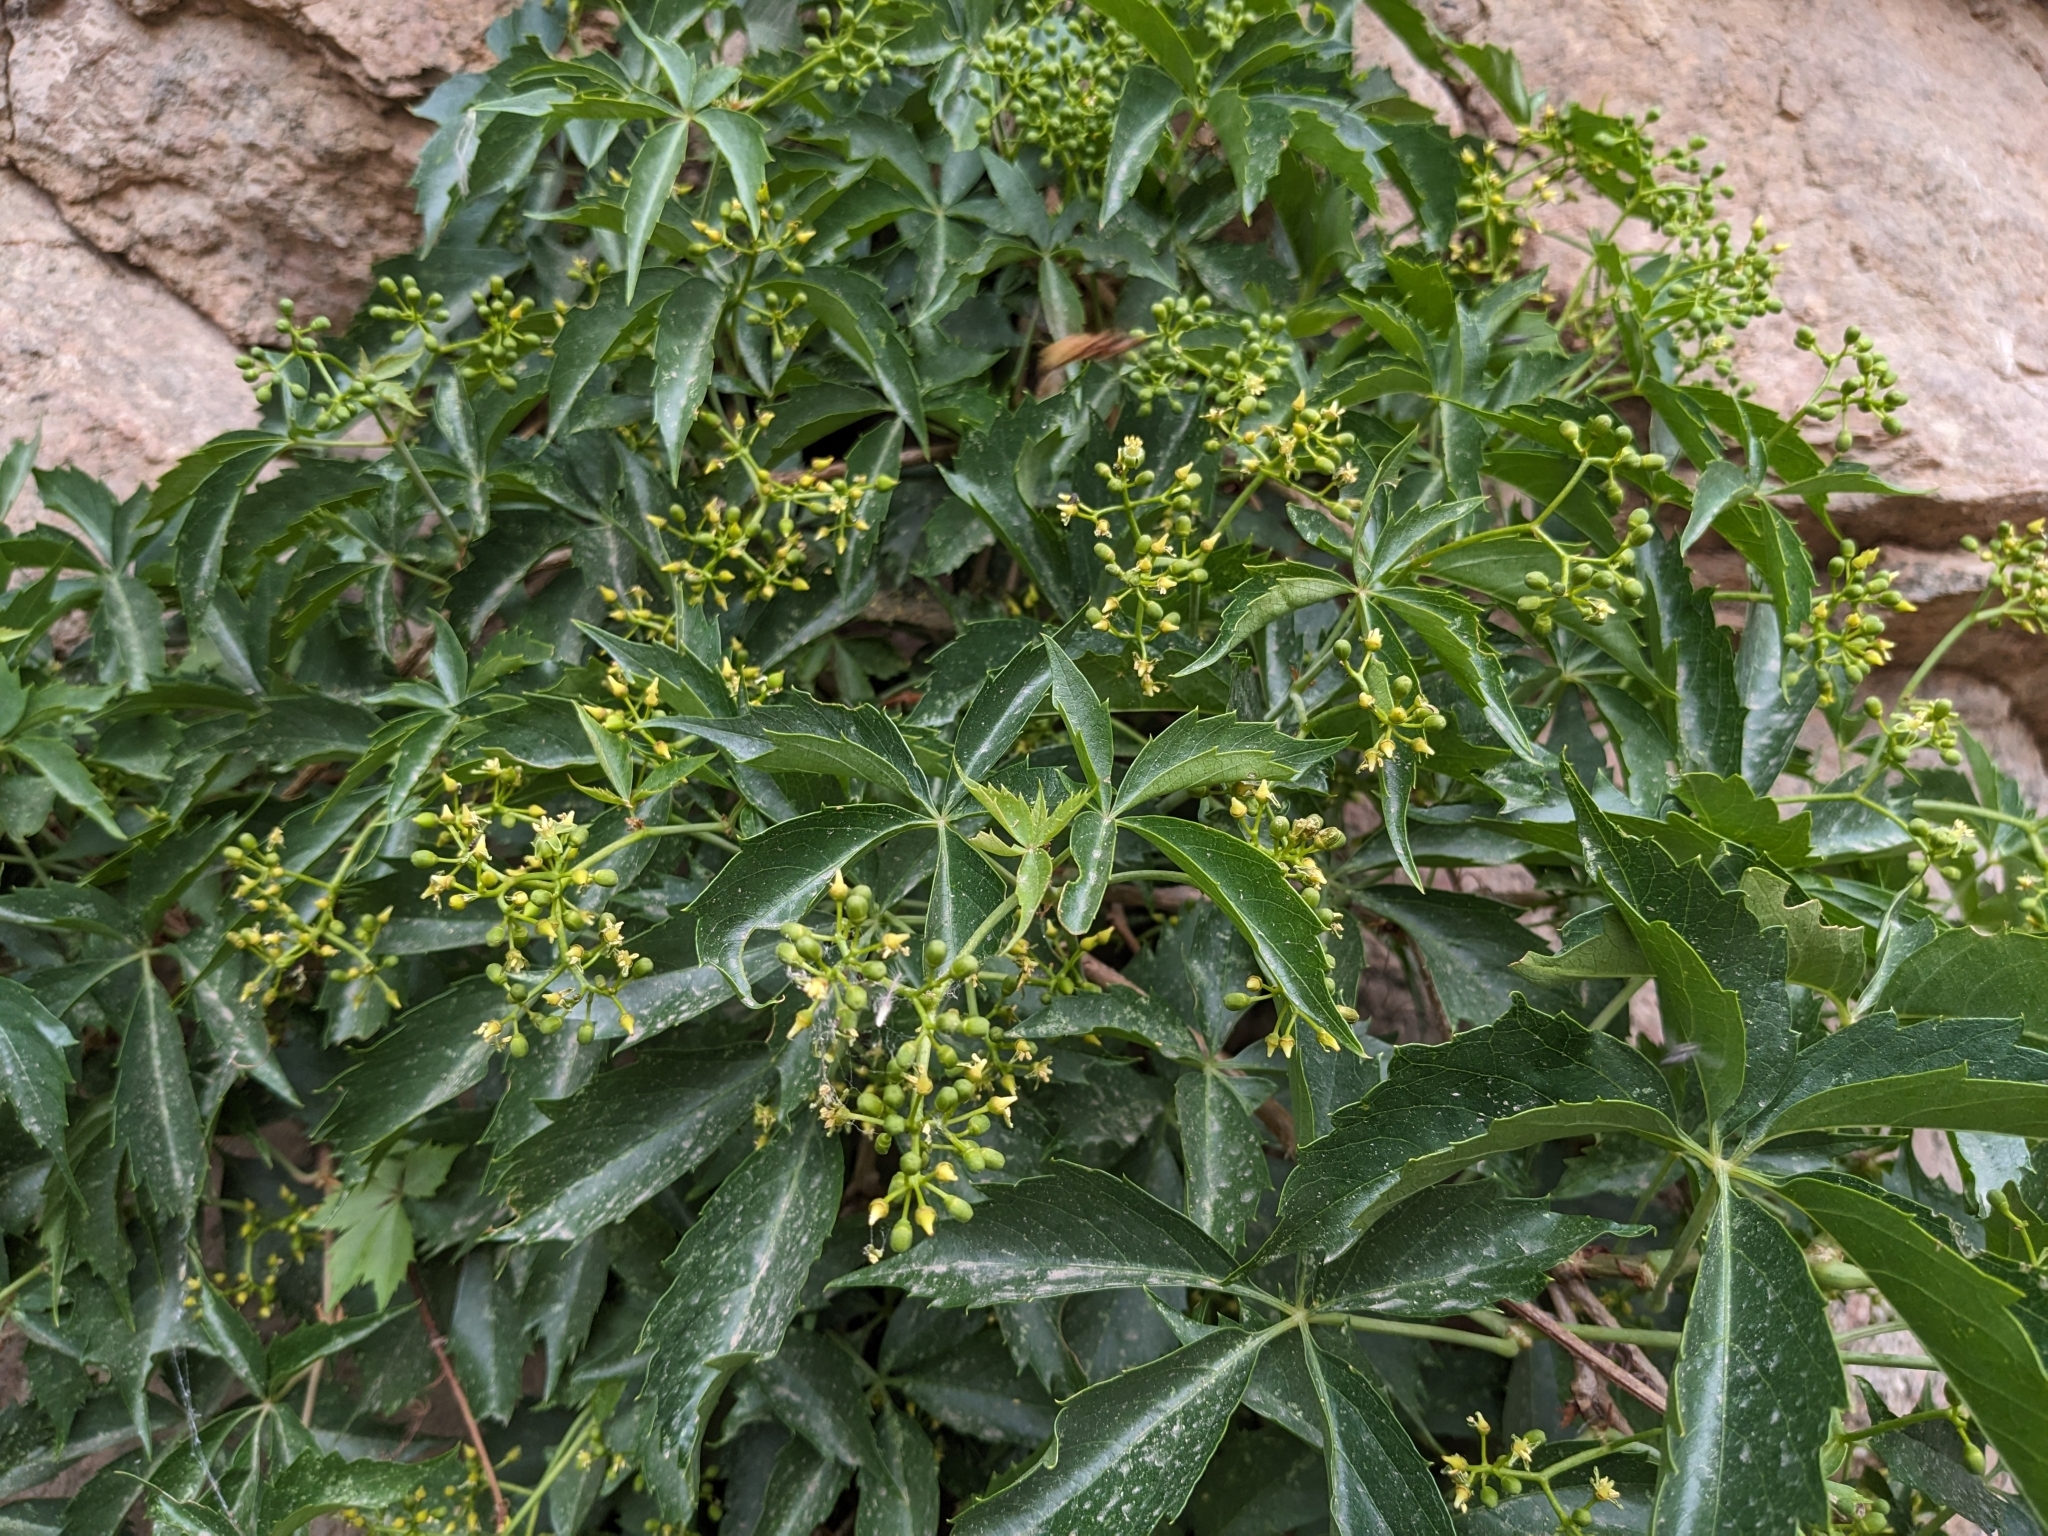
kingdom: Plantae
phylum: Tracheophyta
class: Magnoliopsida
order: Vitales
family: Vitaceae
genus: Parthenocissus
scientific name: Parthenocissus quinquefolia
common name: Virginia-creeper
